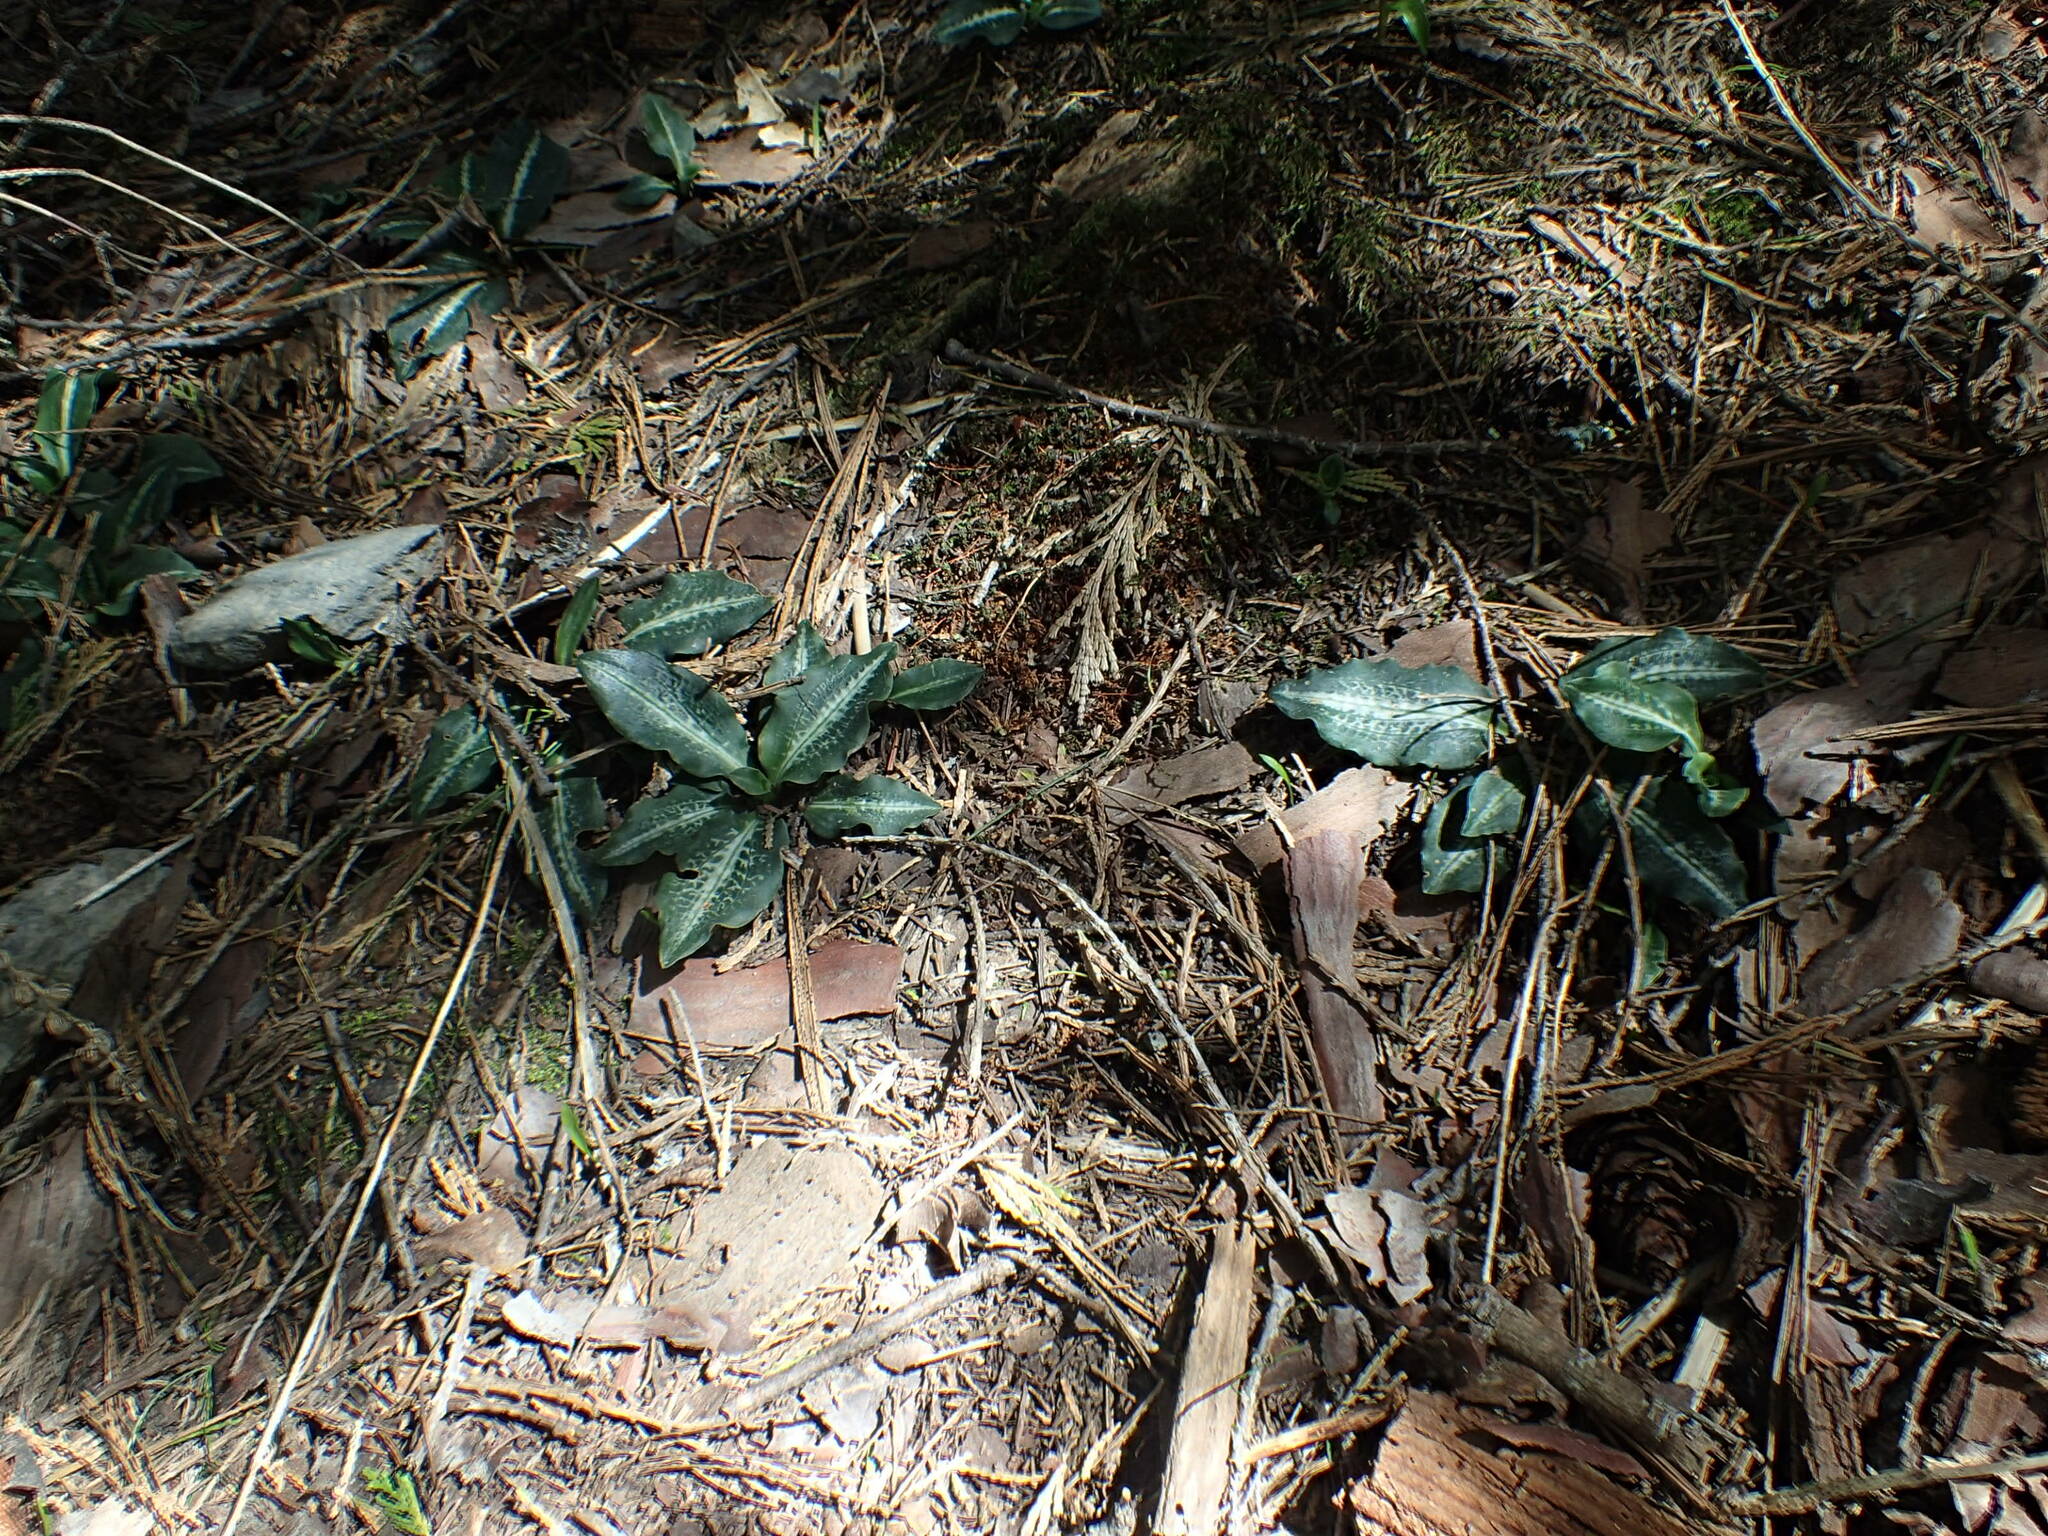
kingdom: Plantae
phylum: Tracheophyta
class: Liliopsida
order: Asparagales
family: Orchidaceae
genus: Goodyera
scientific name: Goodyera oblongifolia
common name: Giant rattlesnake-plantain
